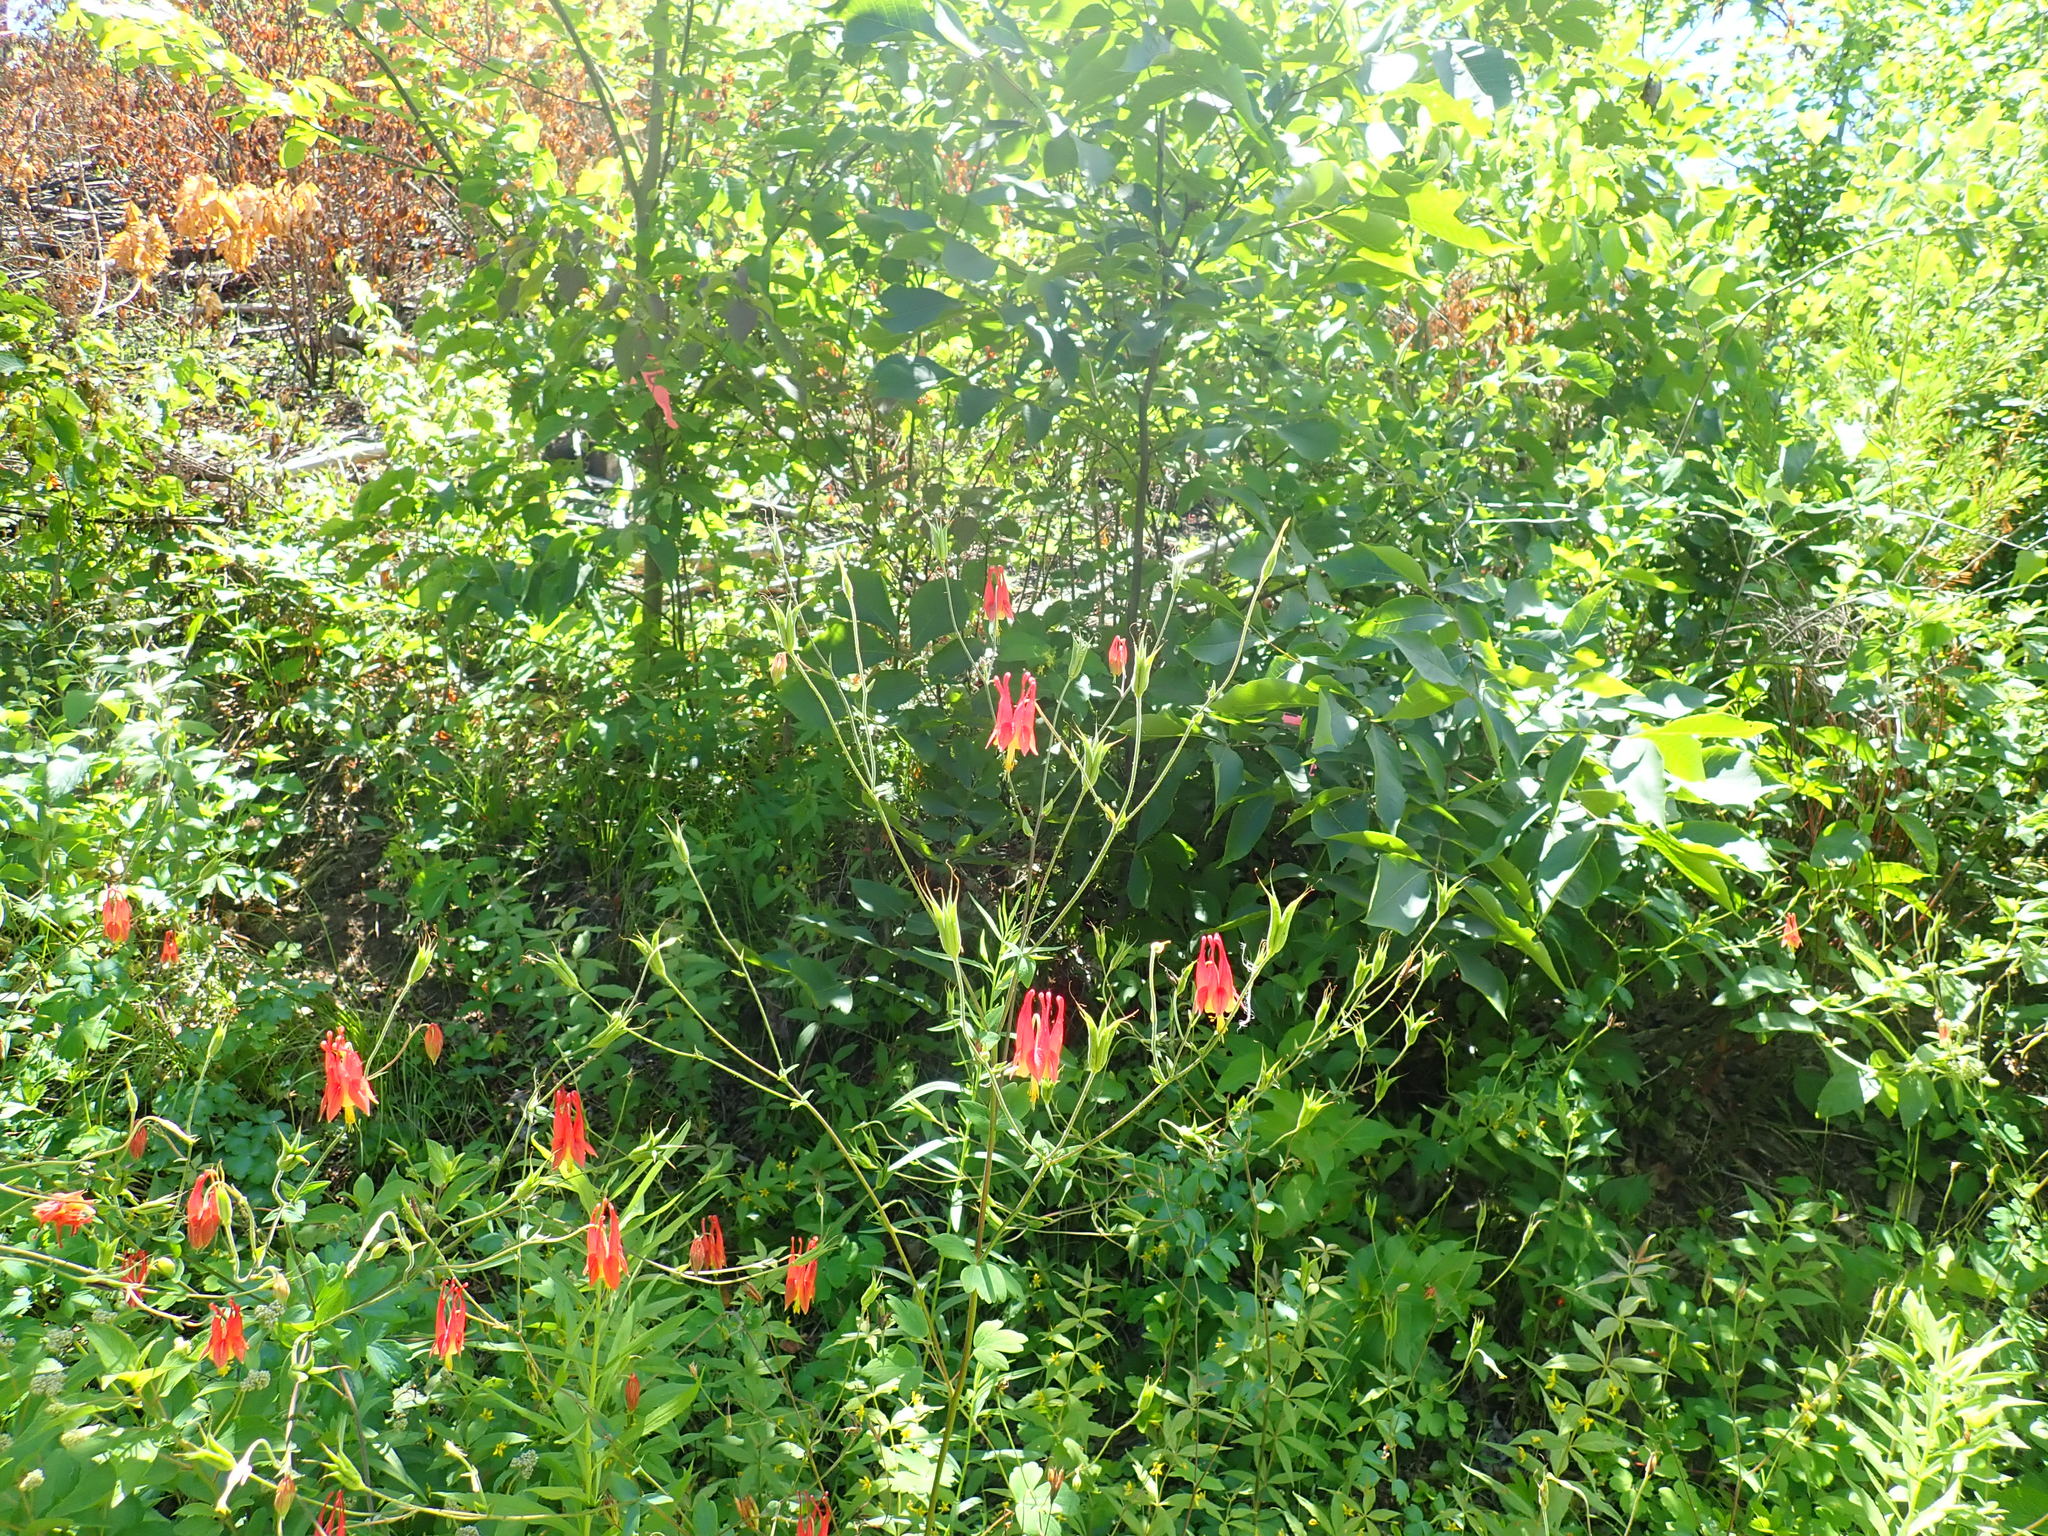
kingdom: Plantae
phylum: Tracheophyta
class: Magnoliopsida
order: Ranunculales
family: Ranunculaceae
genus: Aquilegia
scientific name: Aquilegia canadensis
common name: American columbine
